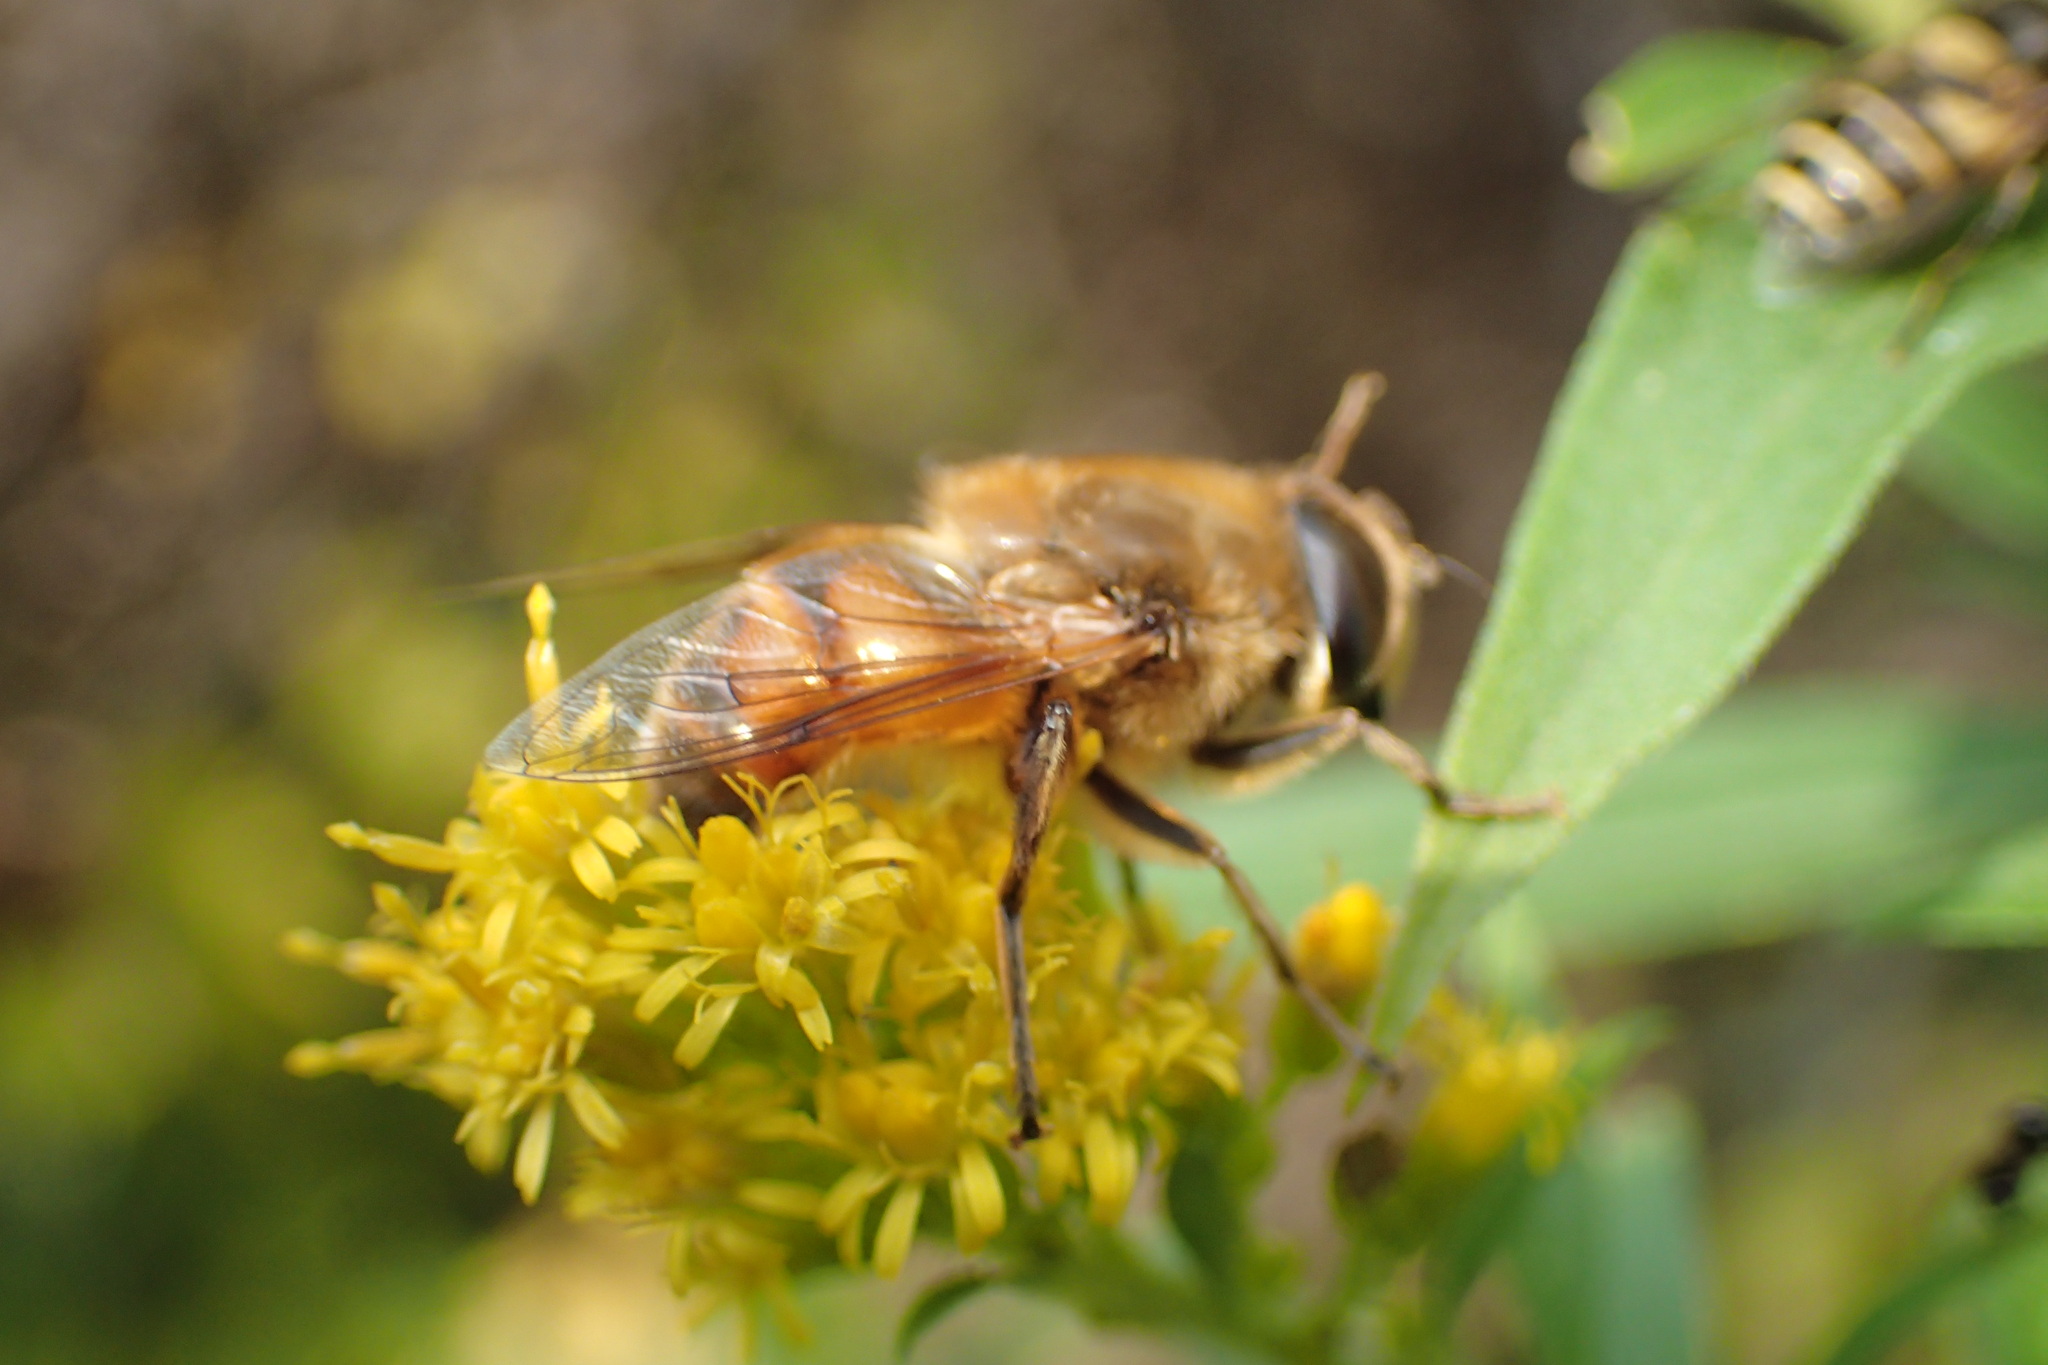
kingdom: Animalia
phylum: Arthropoda
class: Insecta
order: Diptera
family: Syrphidae
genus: Eristalis
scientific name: Eristalis tenax
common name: Drone fly
